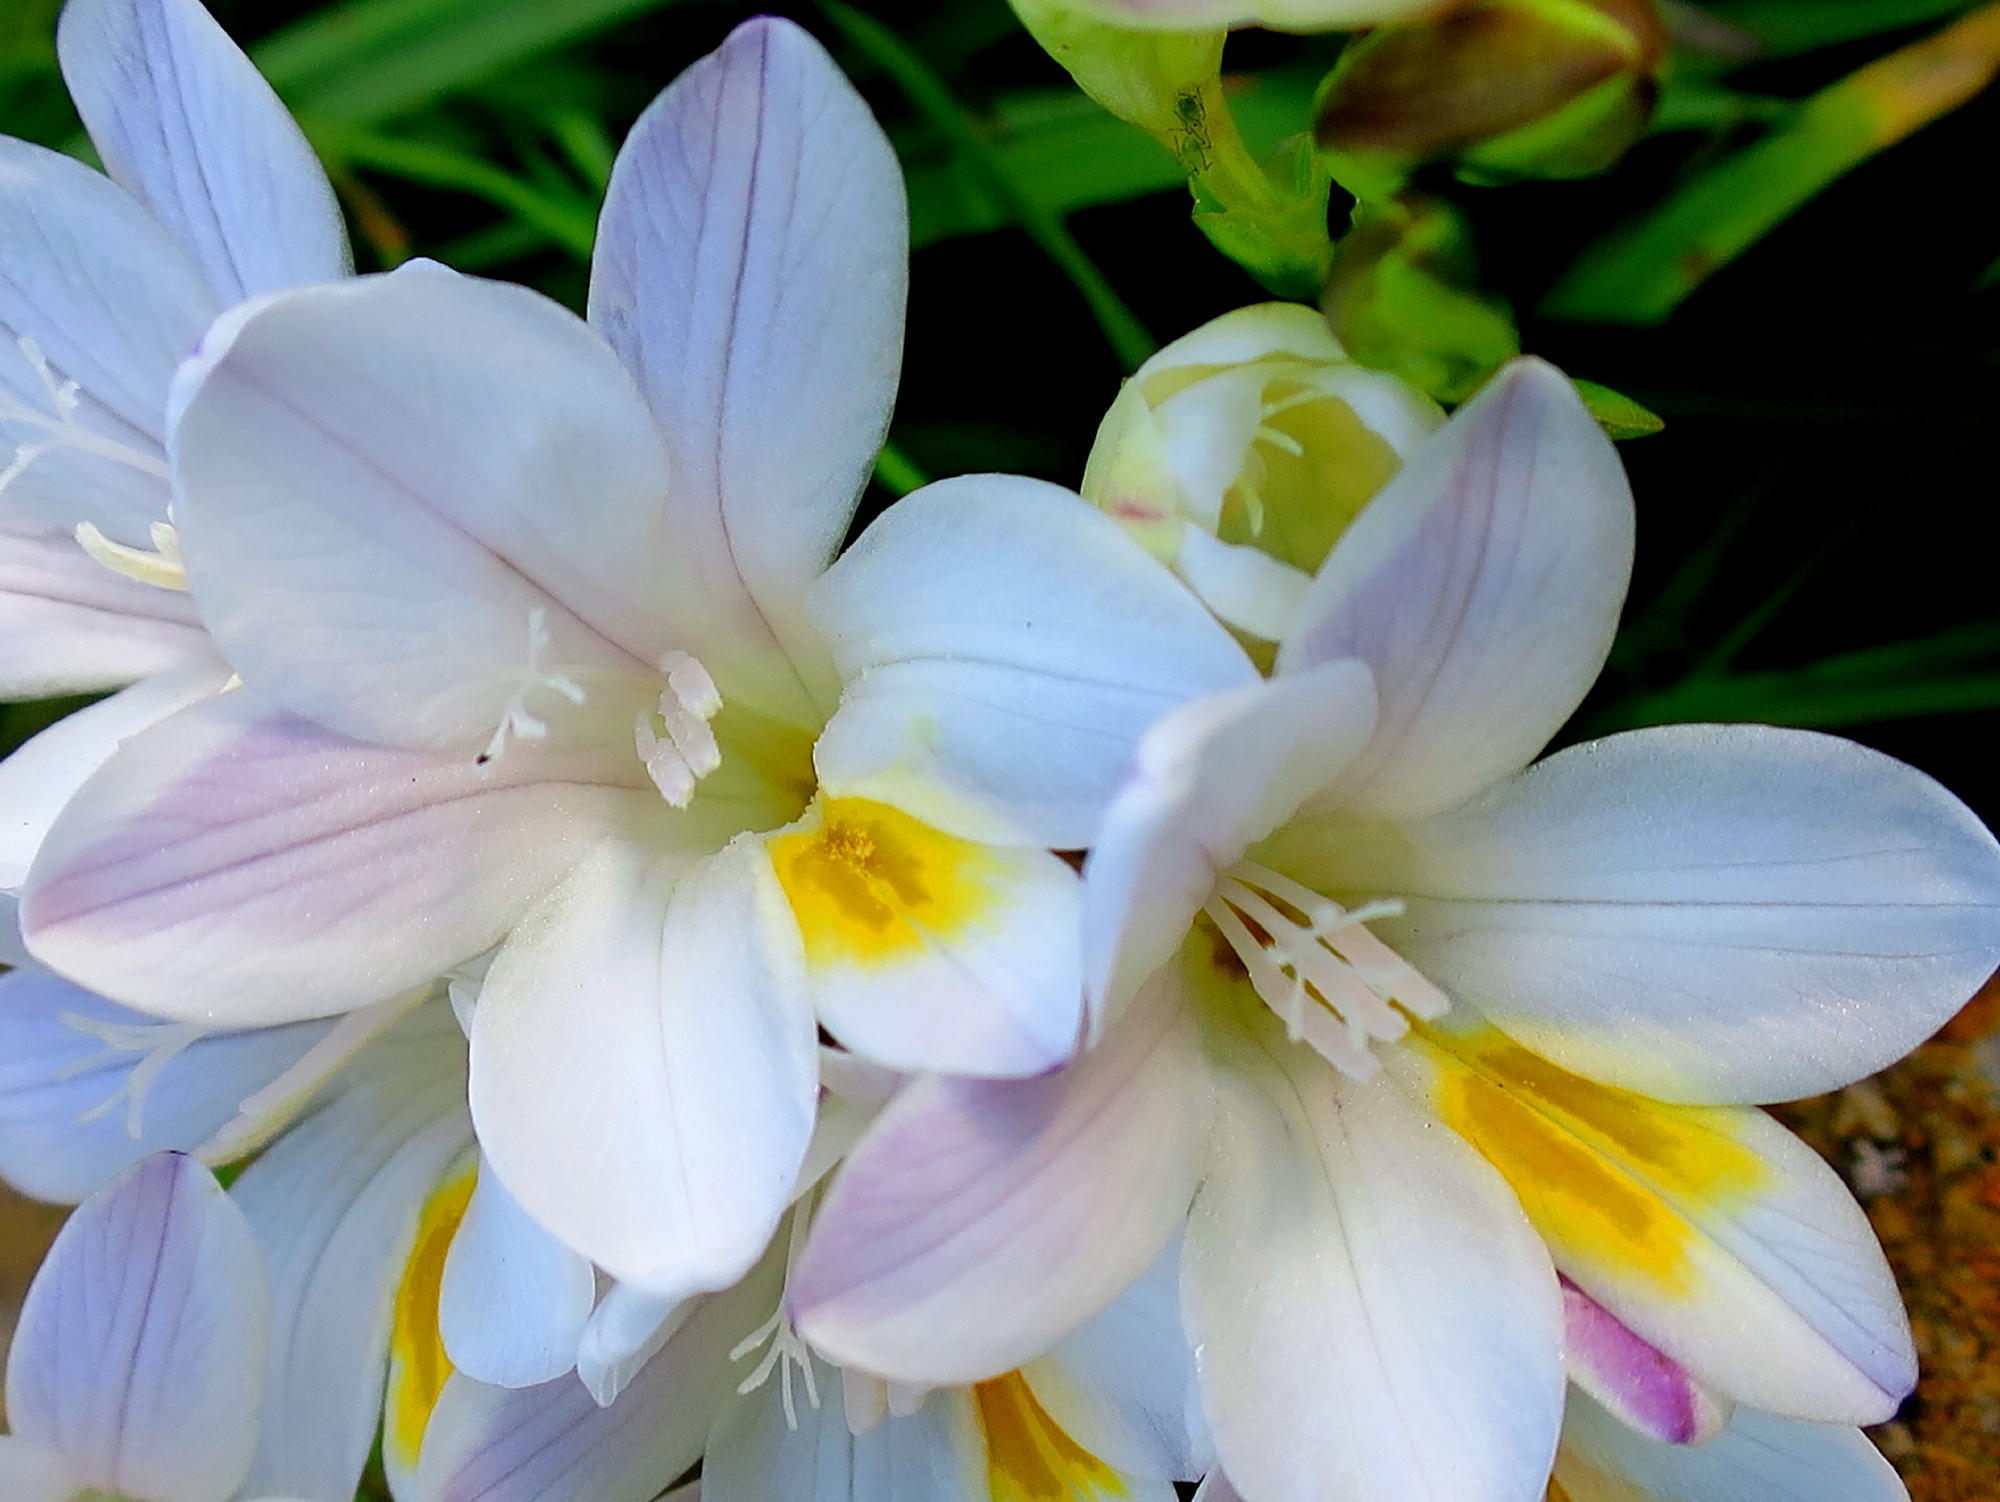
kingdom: Plantae
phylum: Tracheophyta
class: Liliopsida
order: Asparagales
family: Iridaceae
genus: Freesia
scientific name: Freesia leichtlinii
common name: Freesia
